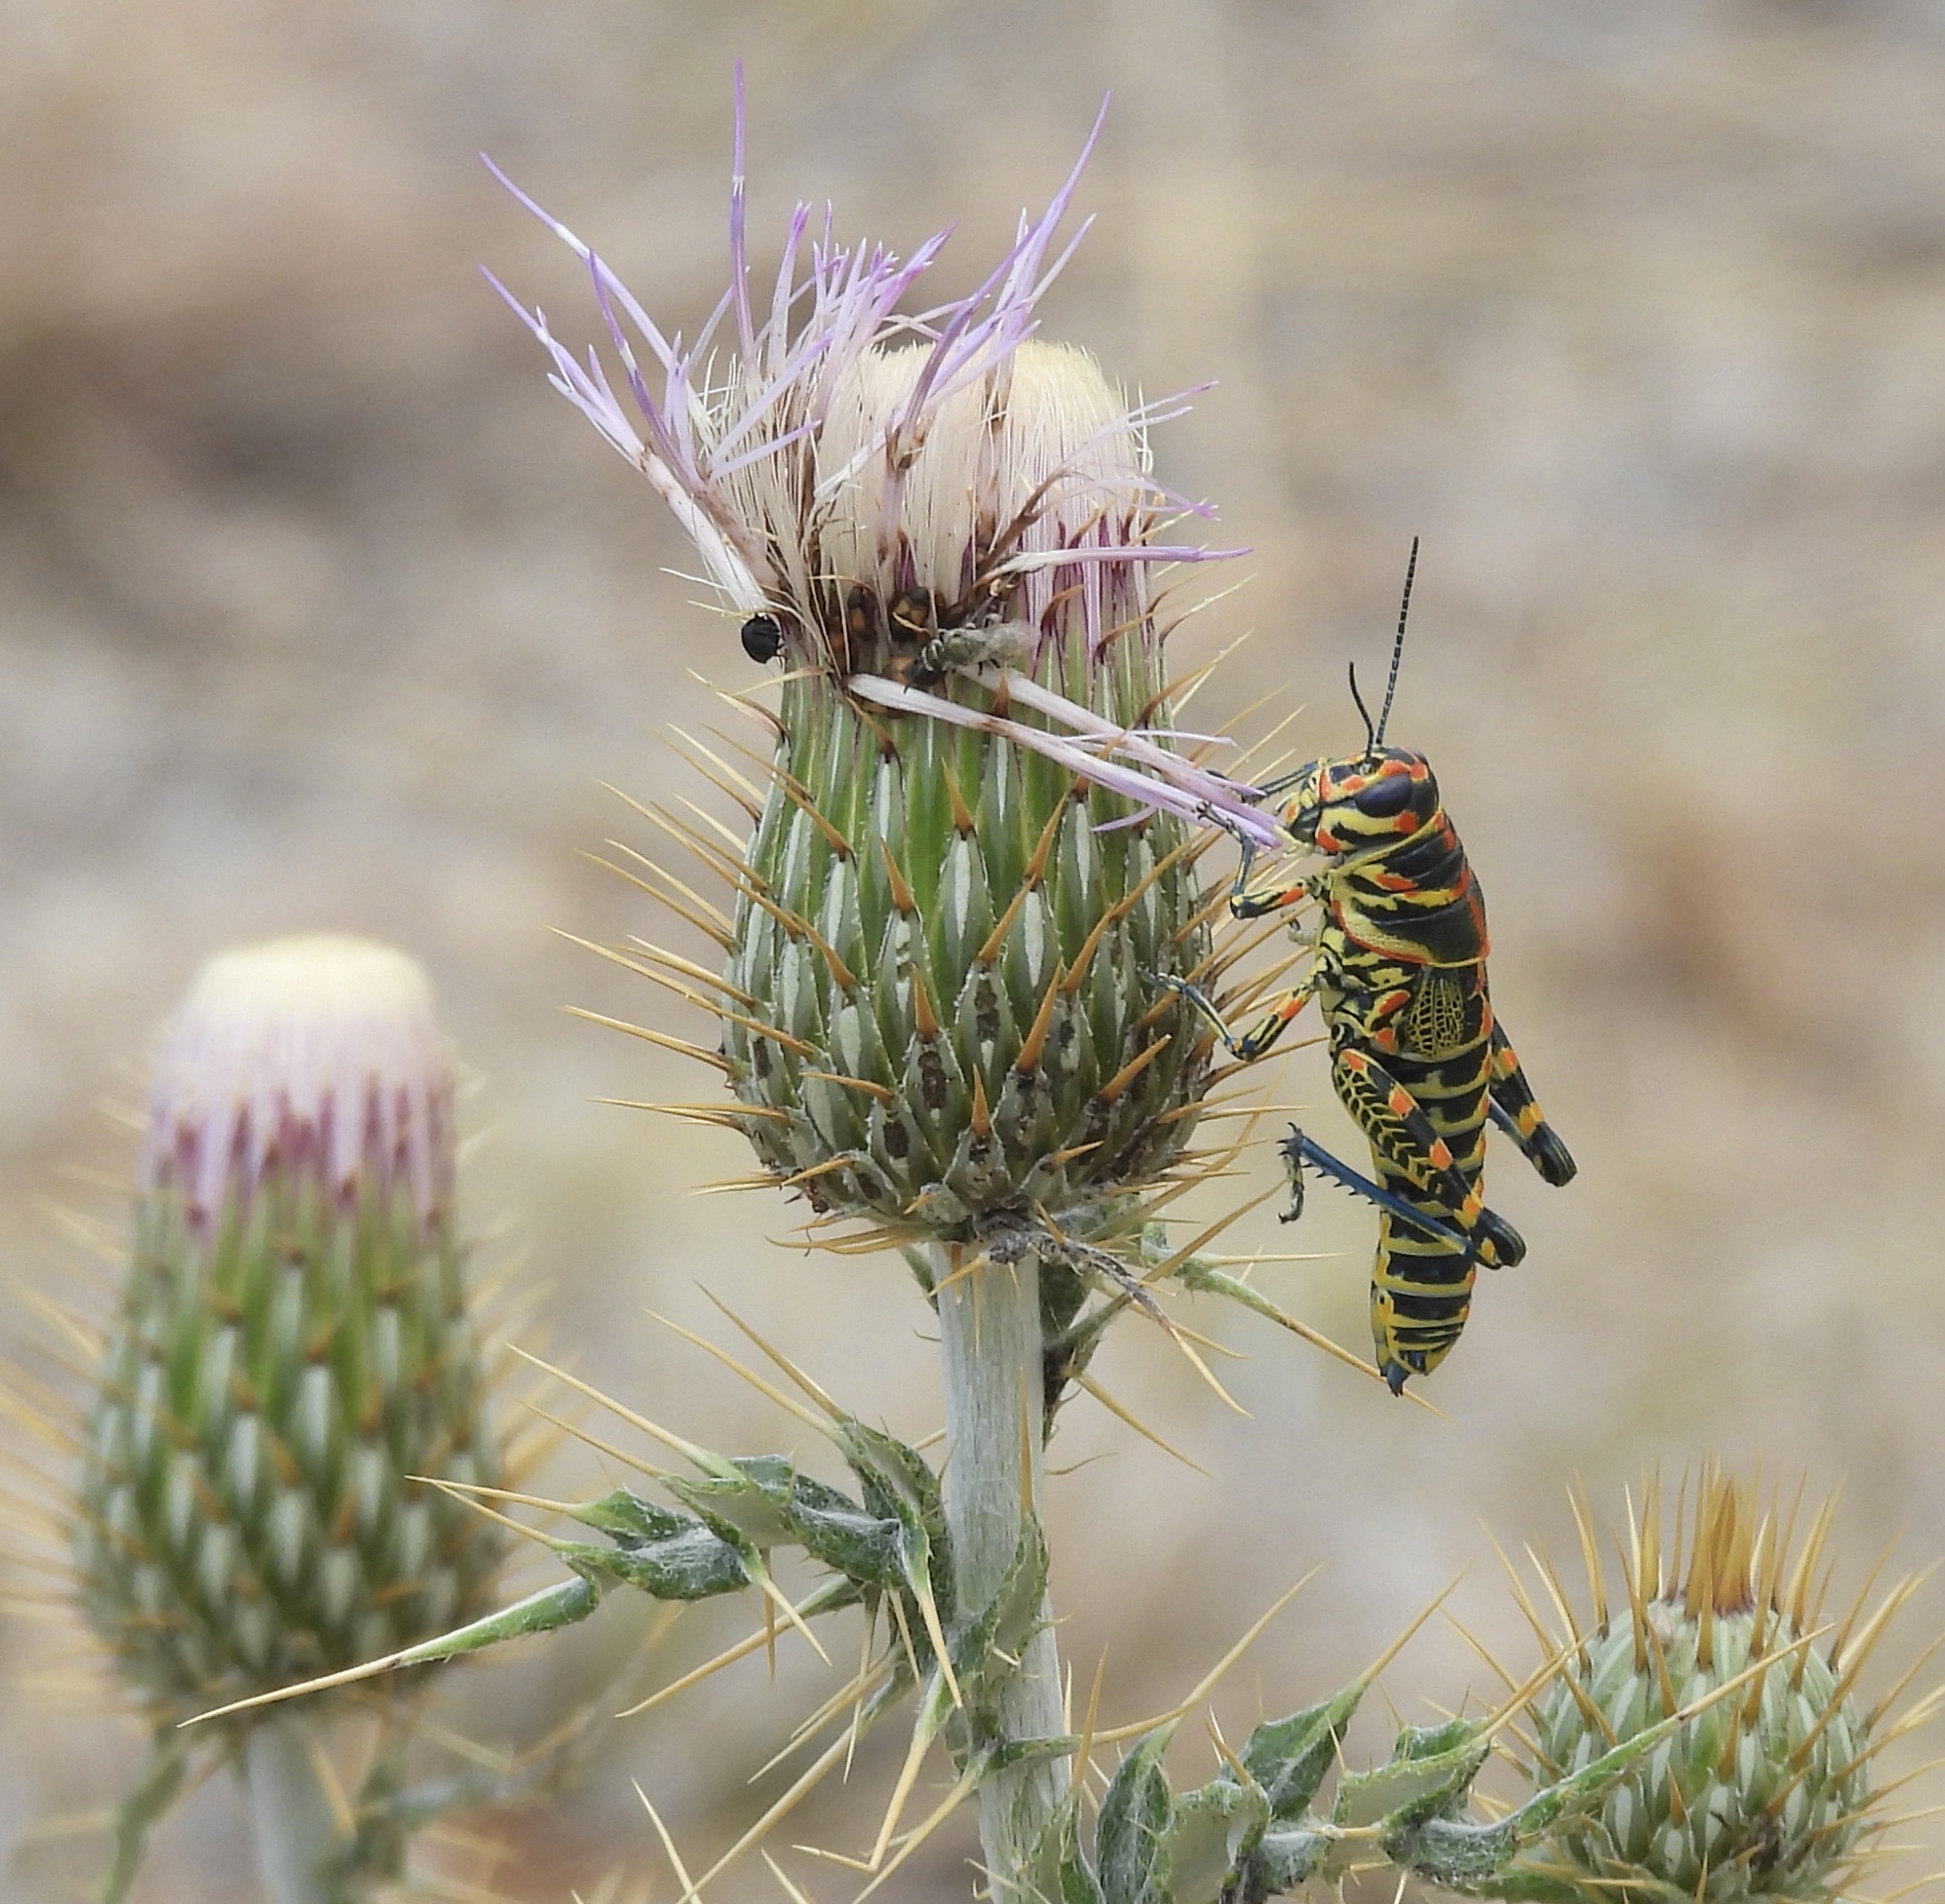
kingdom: Animalia
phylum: Arthropoda
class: Insecta
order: Orthoptera
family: Acrididae
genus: Dactylotum
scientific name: Dactylotum bicolor
